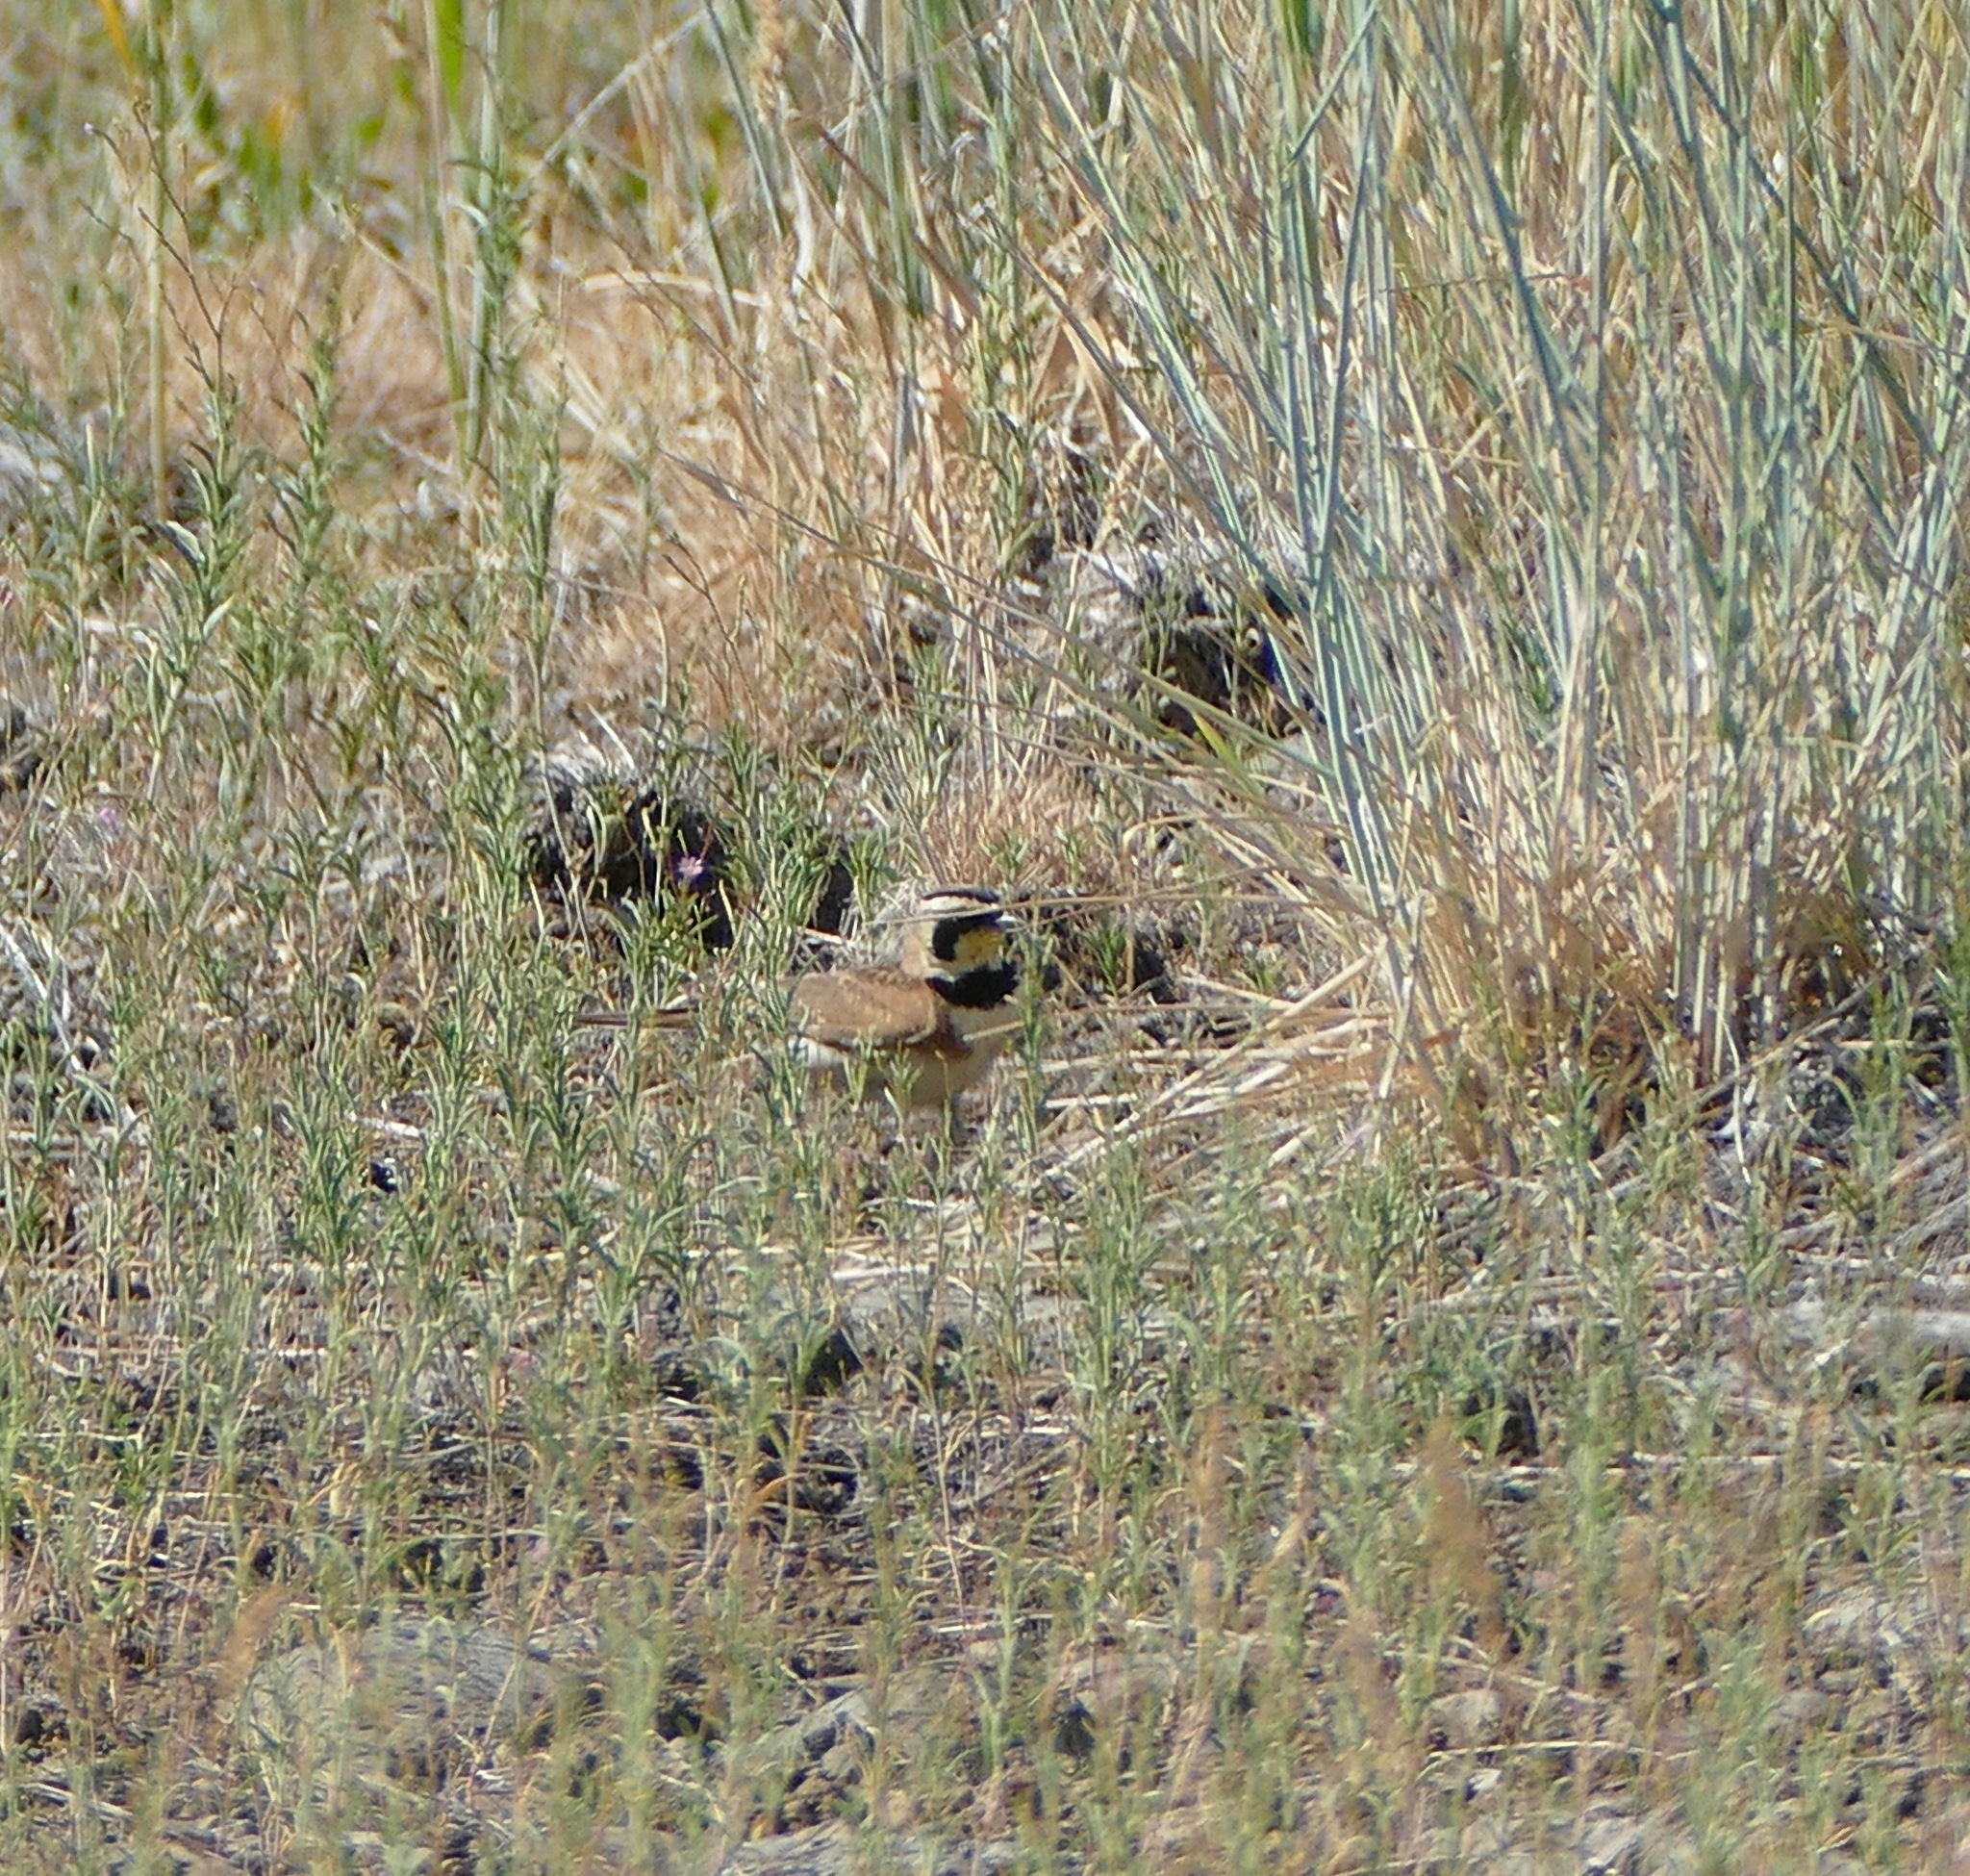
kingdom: Animalia
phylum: Chordata
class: Aves
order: Passeriformes
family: Alaudidae
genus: Eremophila
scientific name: Eremophila alpestris
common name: Horned lark
